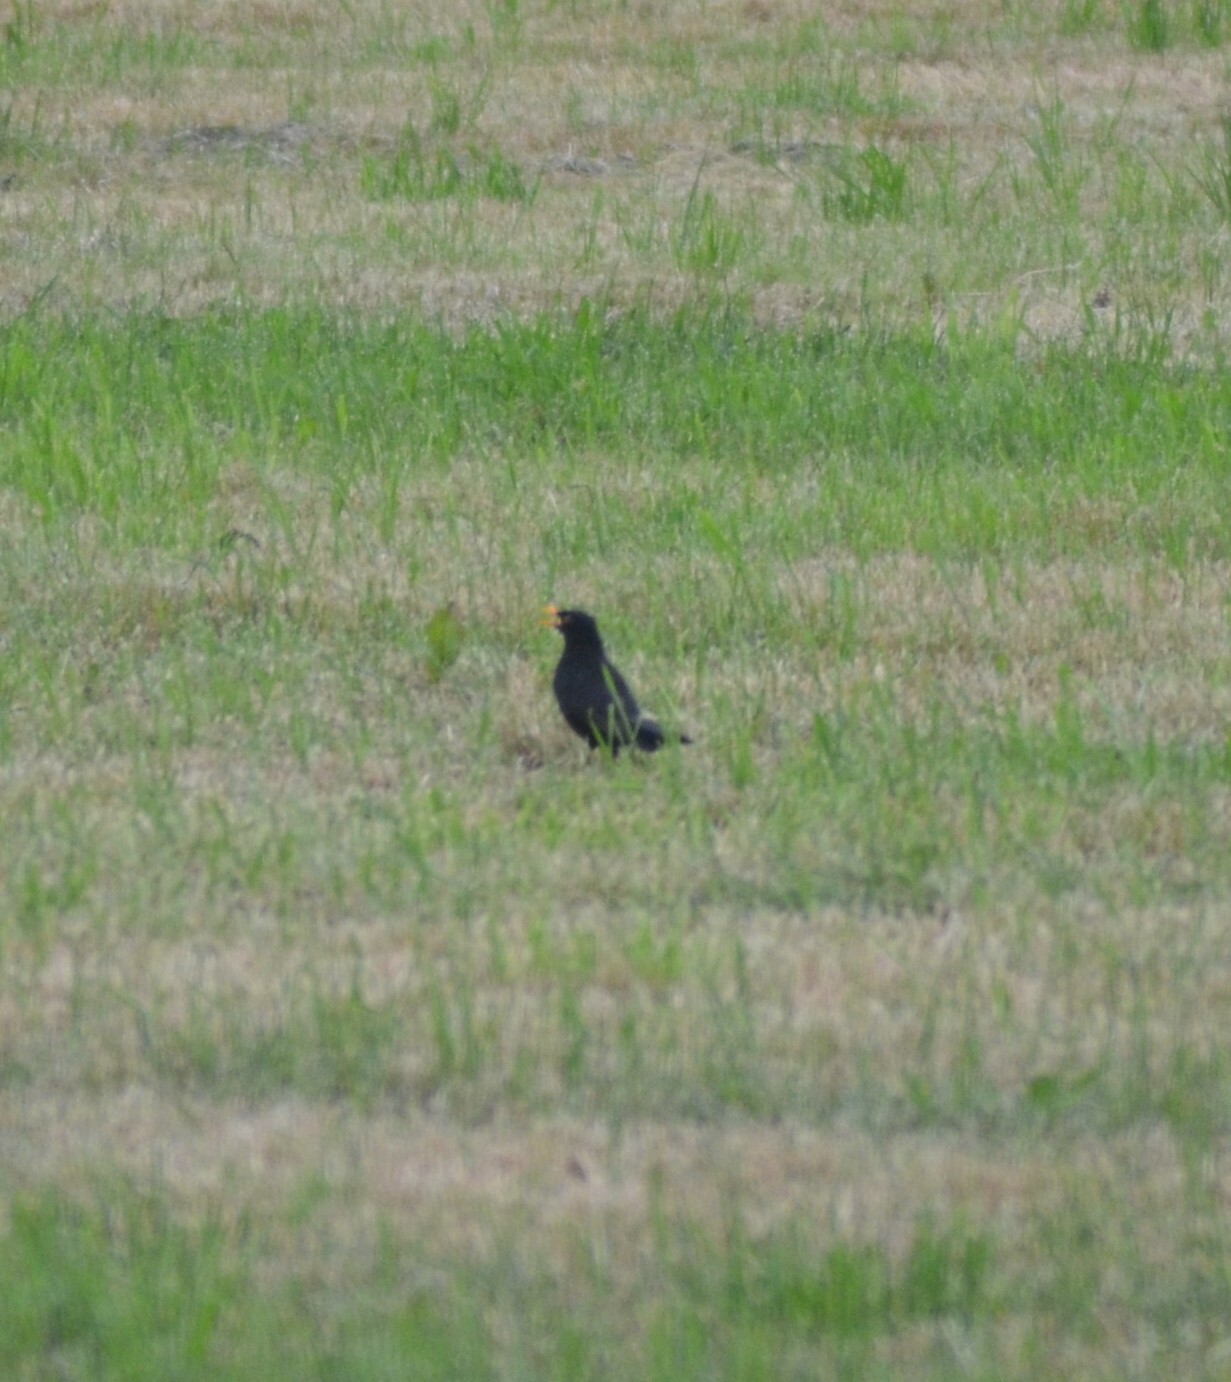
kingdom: Animalia
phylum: Chordata
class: Aves
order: Passeriformes
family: Turdidae
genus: Turdus
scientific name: Turdus merula
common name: Common blackbird
